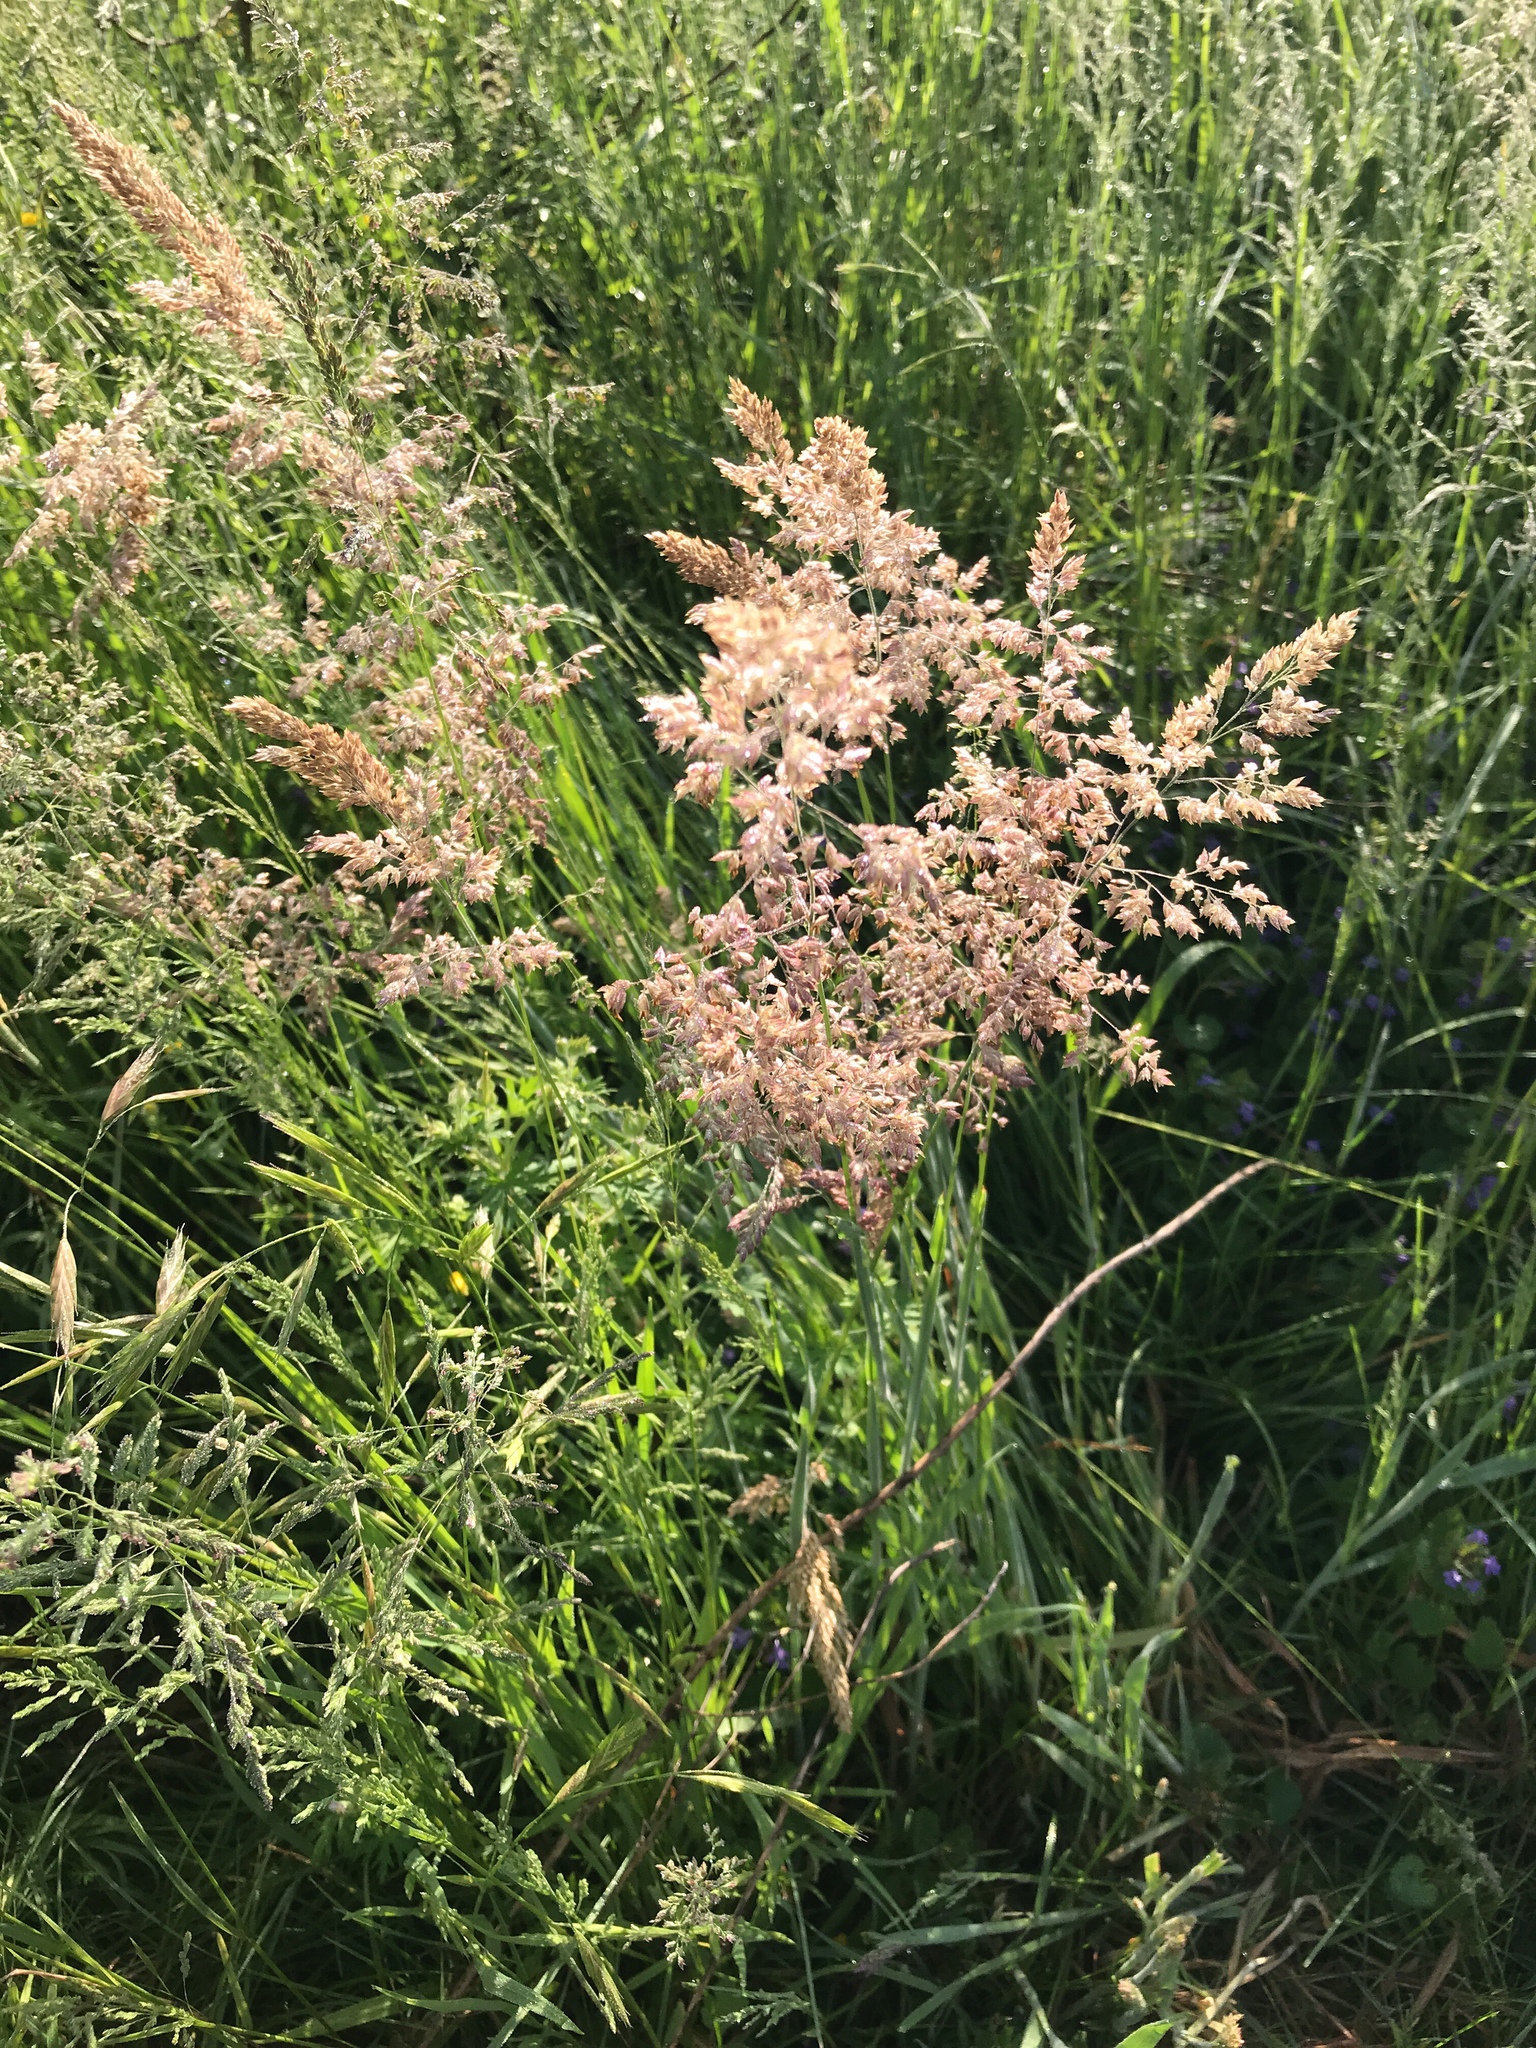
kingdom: Plantae
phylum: Tracheophyta
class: Liliopsida
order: Poales
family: Poaceae
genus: Holcus
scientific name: Holcus lanatus
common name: Yorkshire-fog
